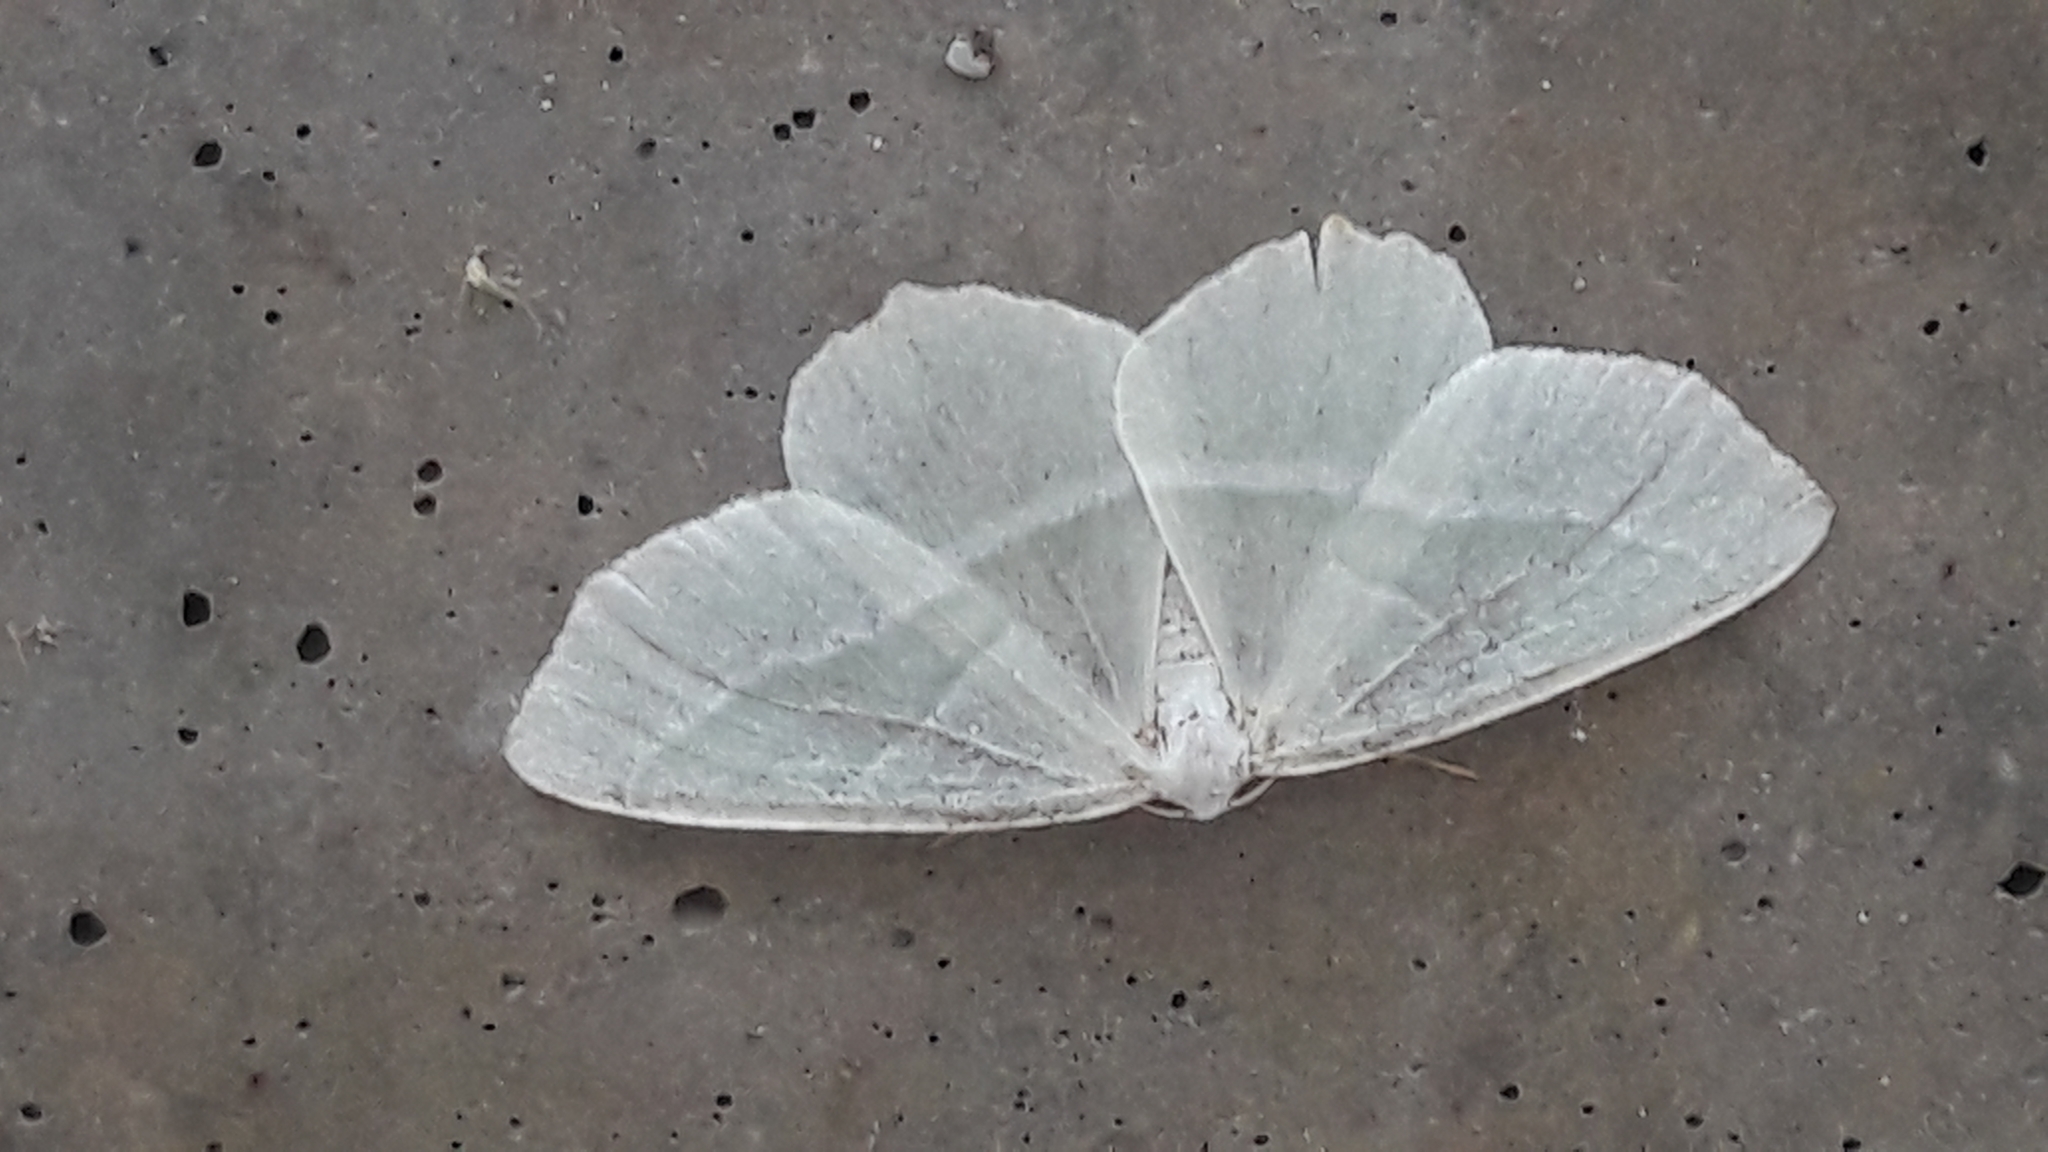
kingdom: Animalia
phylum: Arthropoda
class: Insecta
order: Lepidoptera
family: Geometridae
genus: Campaea
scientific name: Campaea margaritaria
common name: Light emerald
